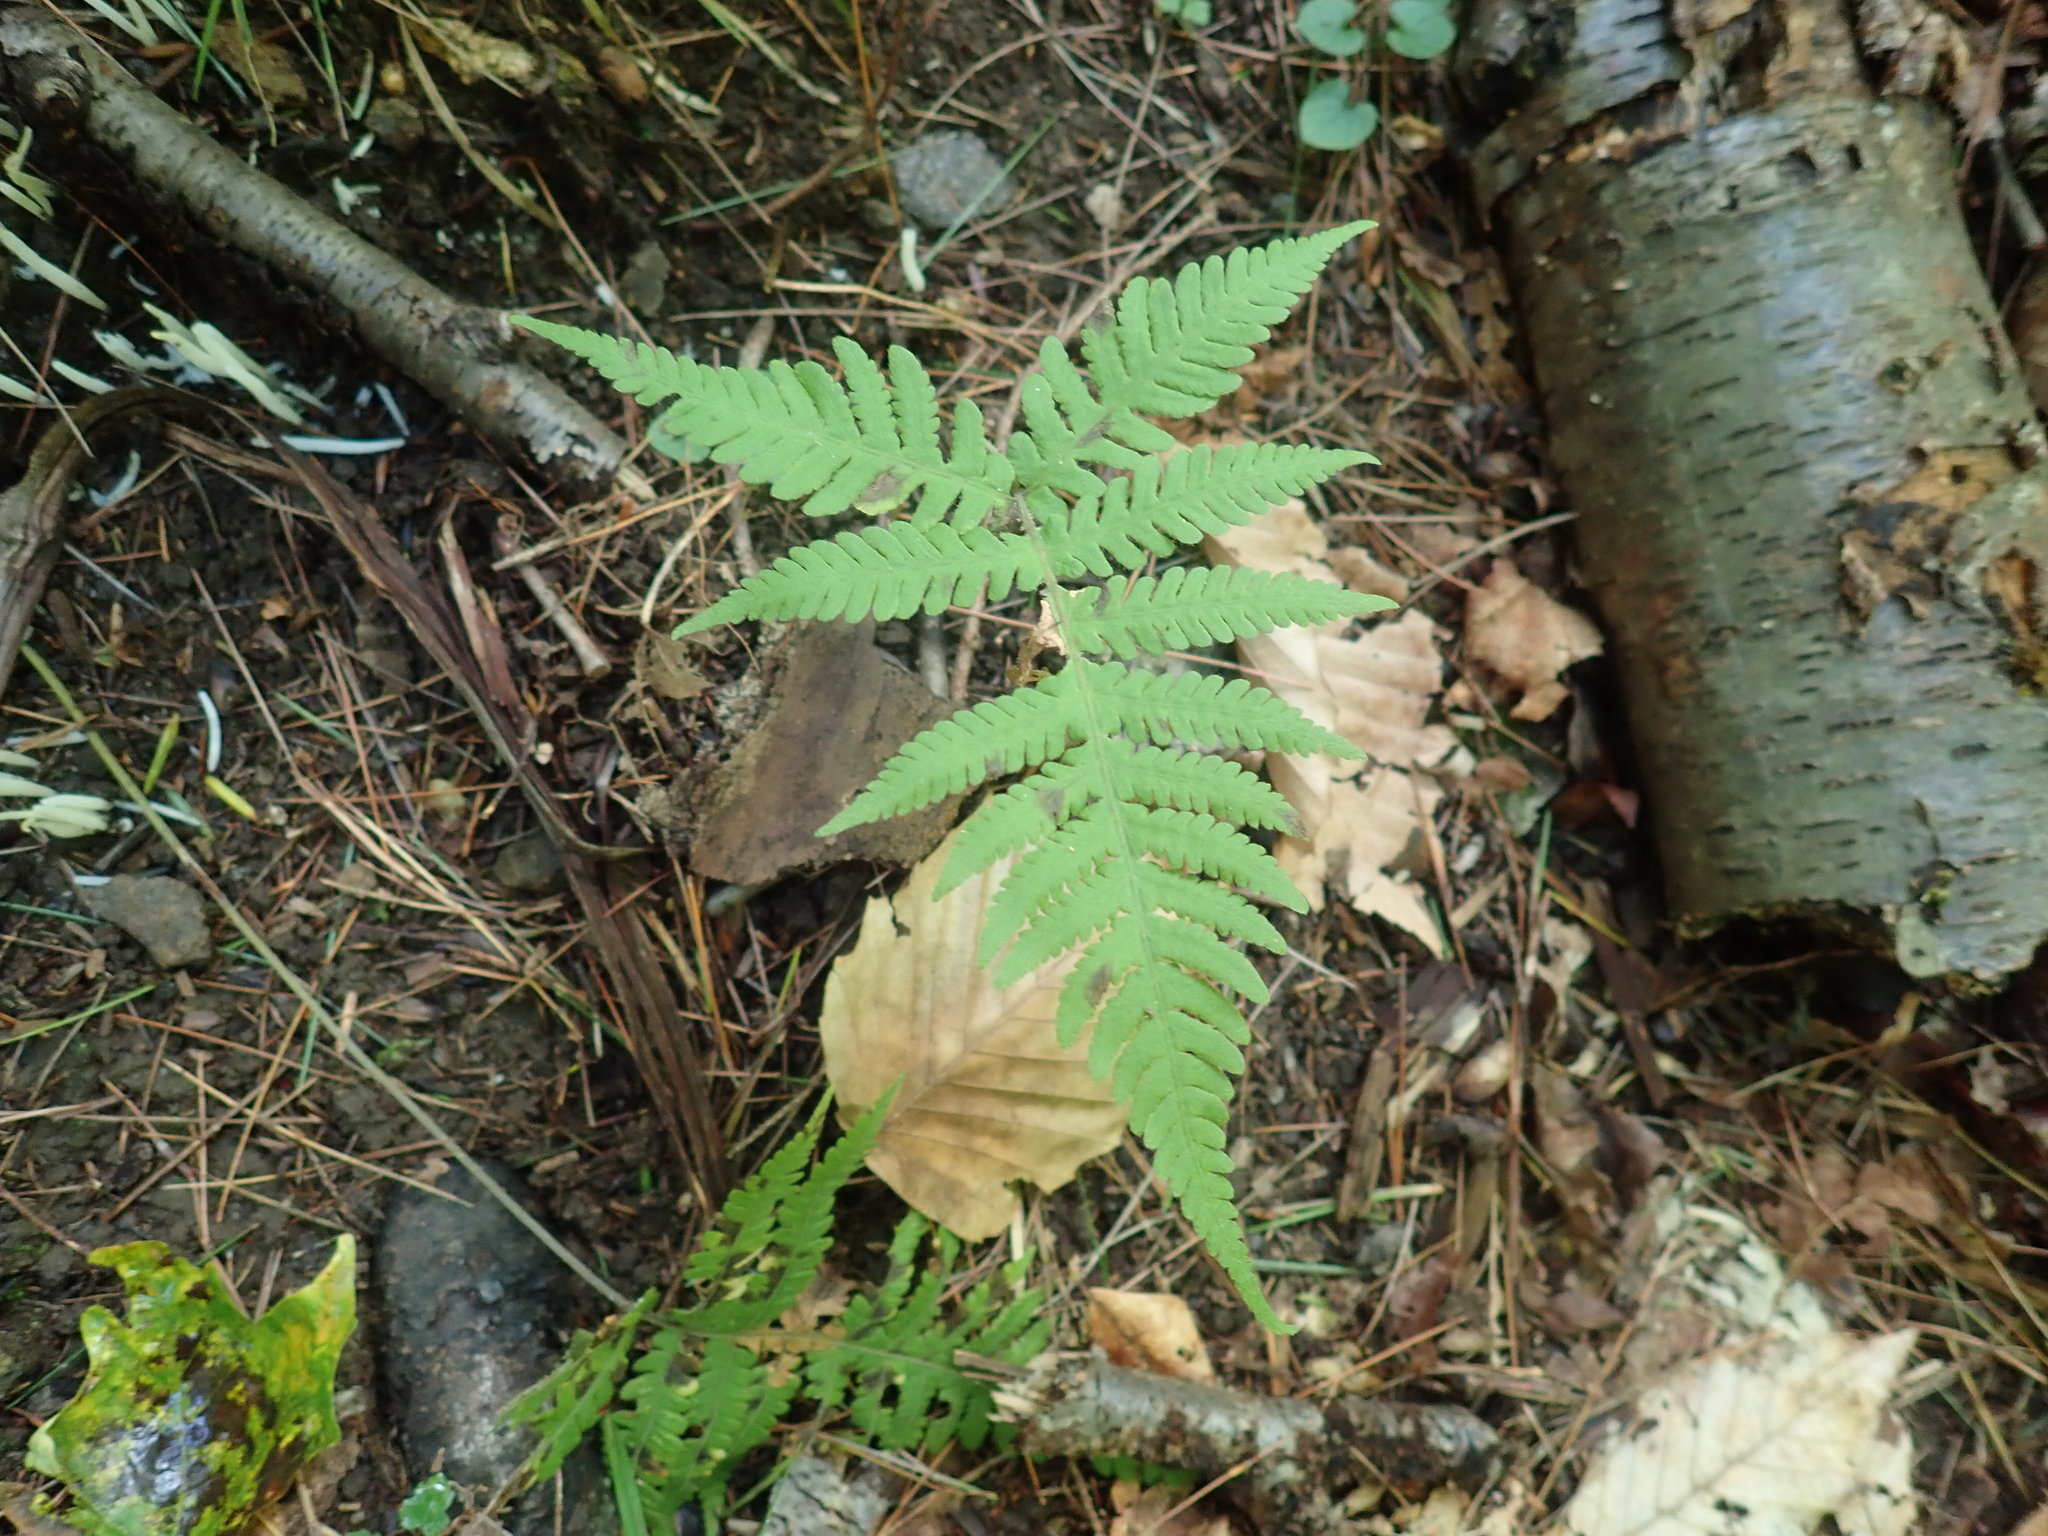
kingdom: Plantae
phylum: Tracheophyta
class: Polypodiopsida
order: Polypodiales
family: Thelypteridaceae
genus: Phegopteris
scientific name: Phegopteris connectilis
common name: Beech fern
